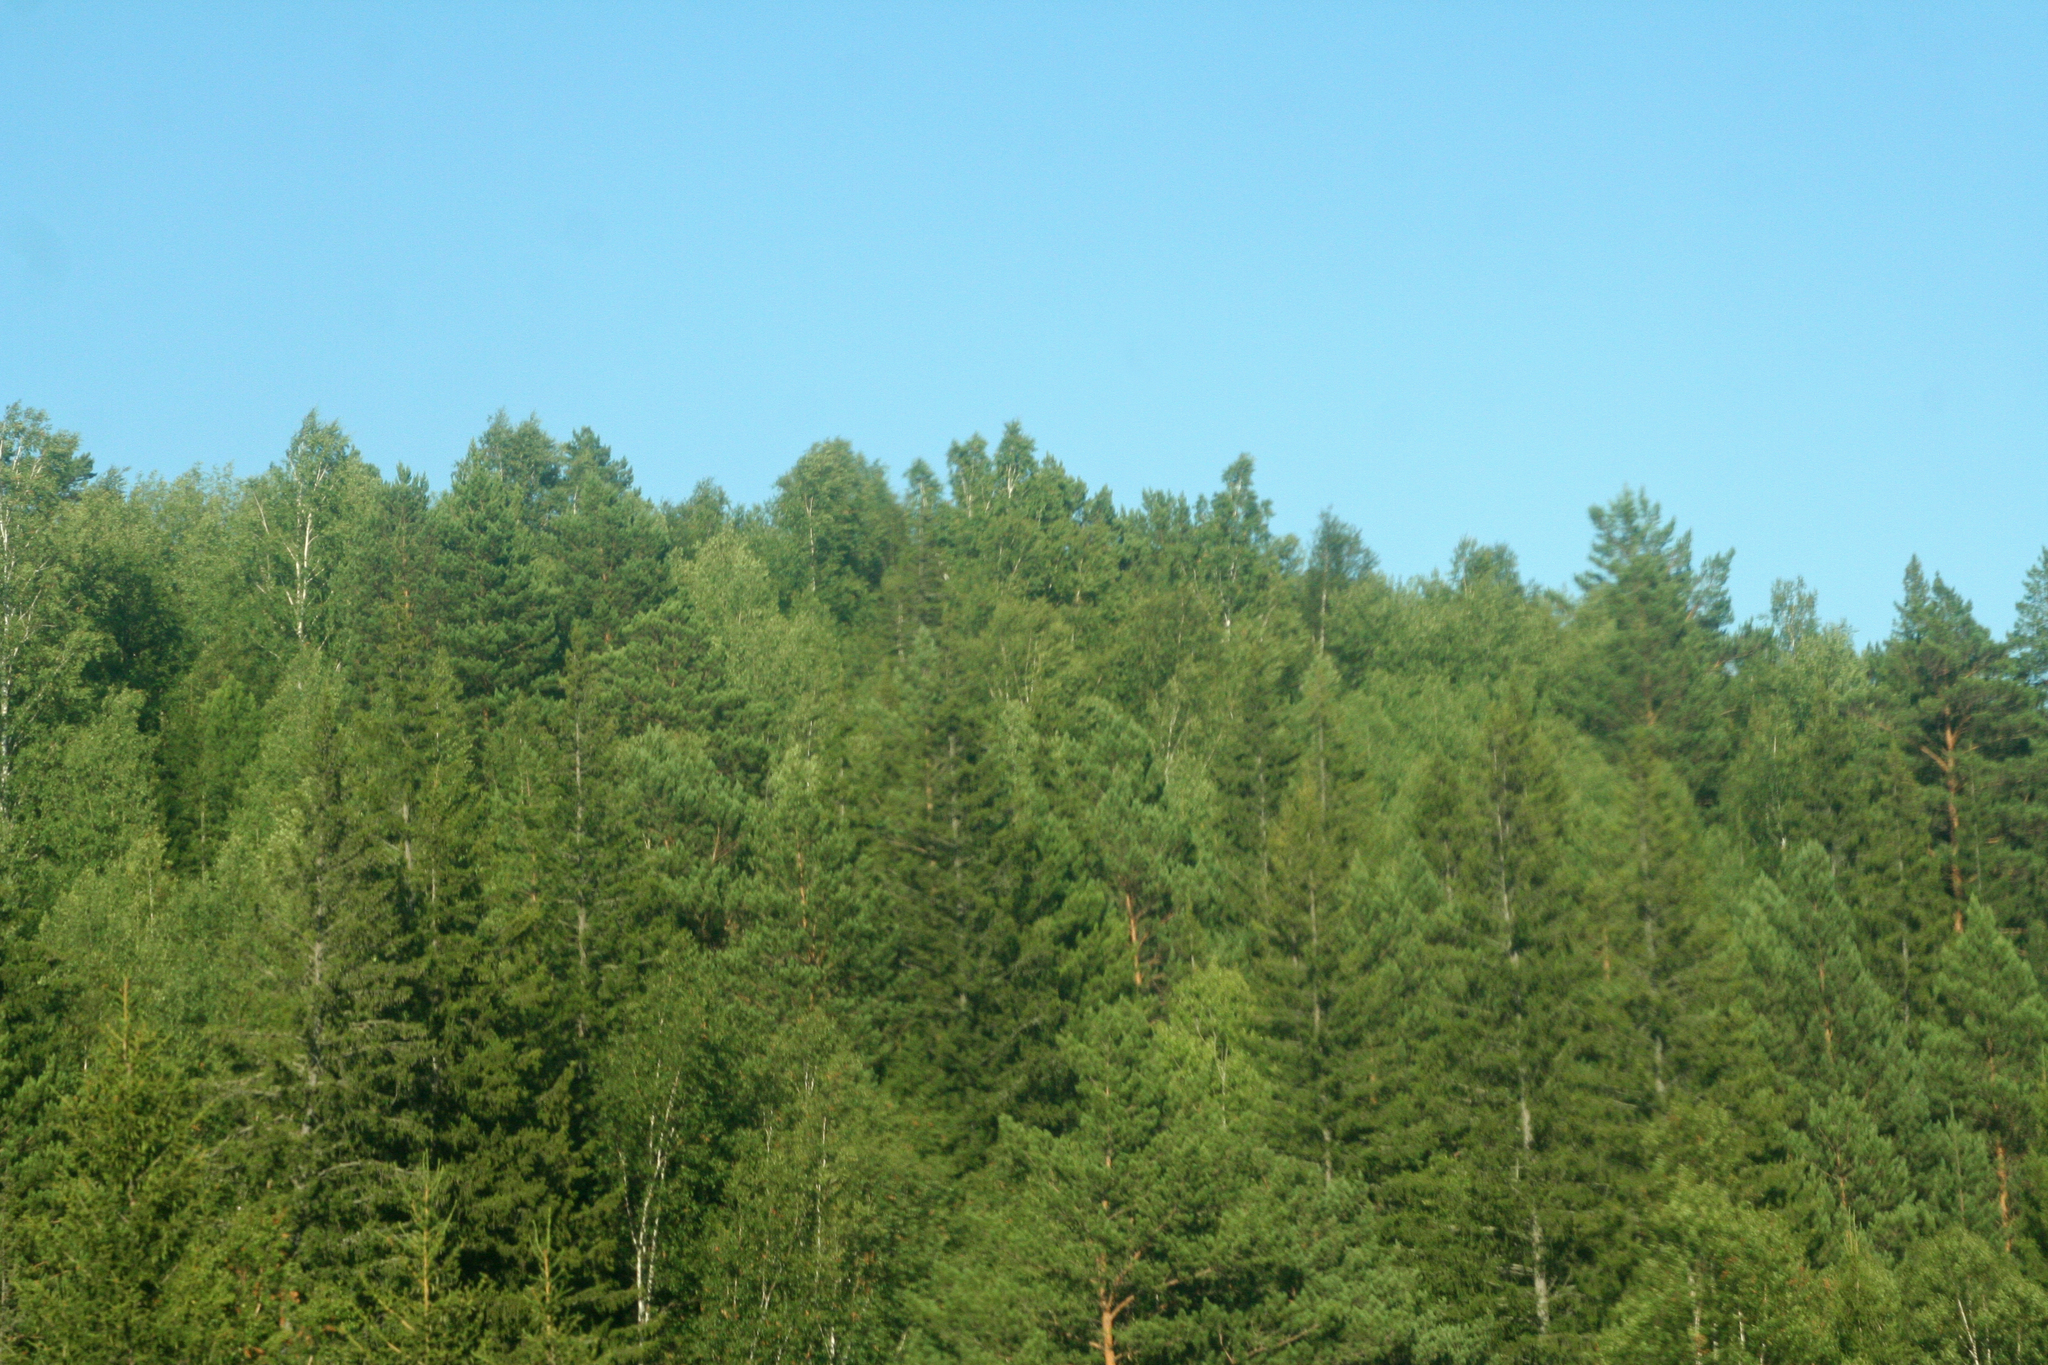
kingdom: Plantae
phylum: Tracheophyta
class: Pinopsida
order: Pinales
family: Pinaceae
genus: Picea
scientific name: Picea obovata
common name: Siberian spruce
